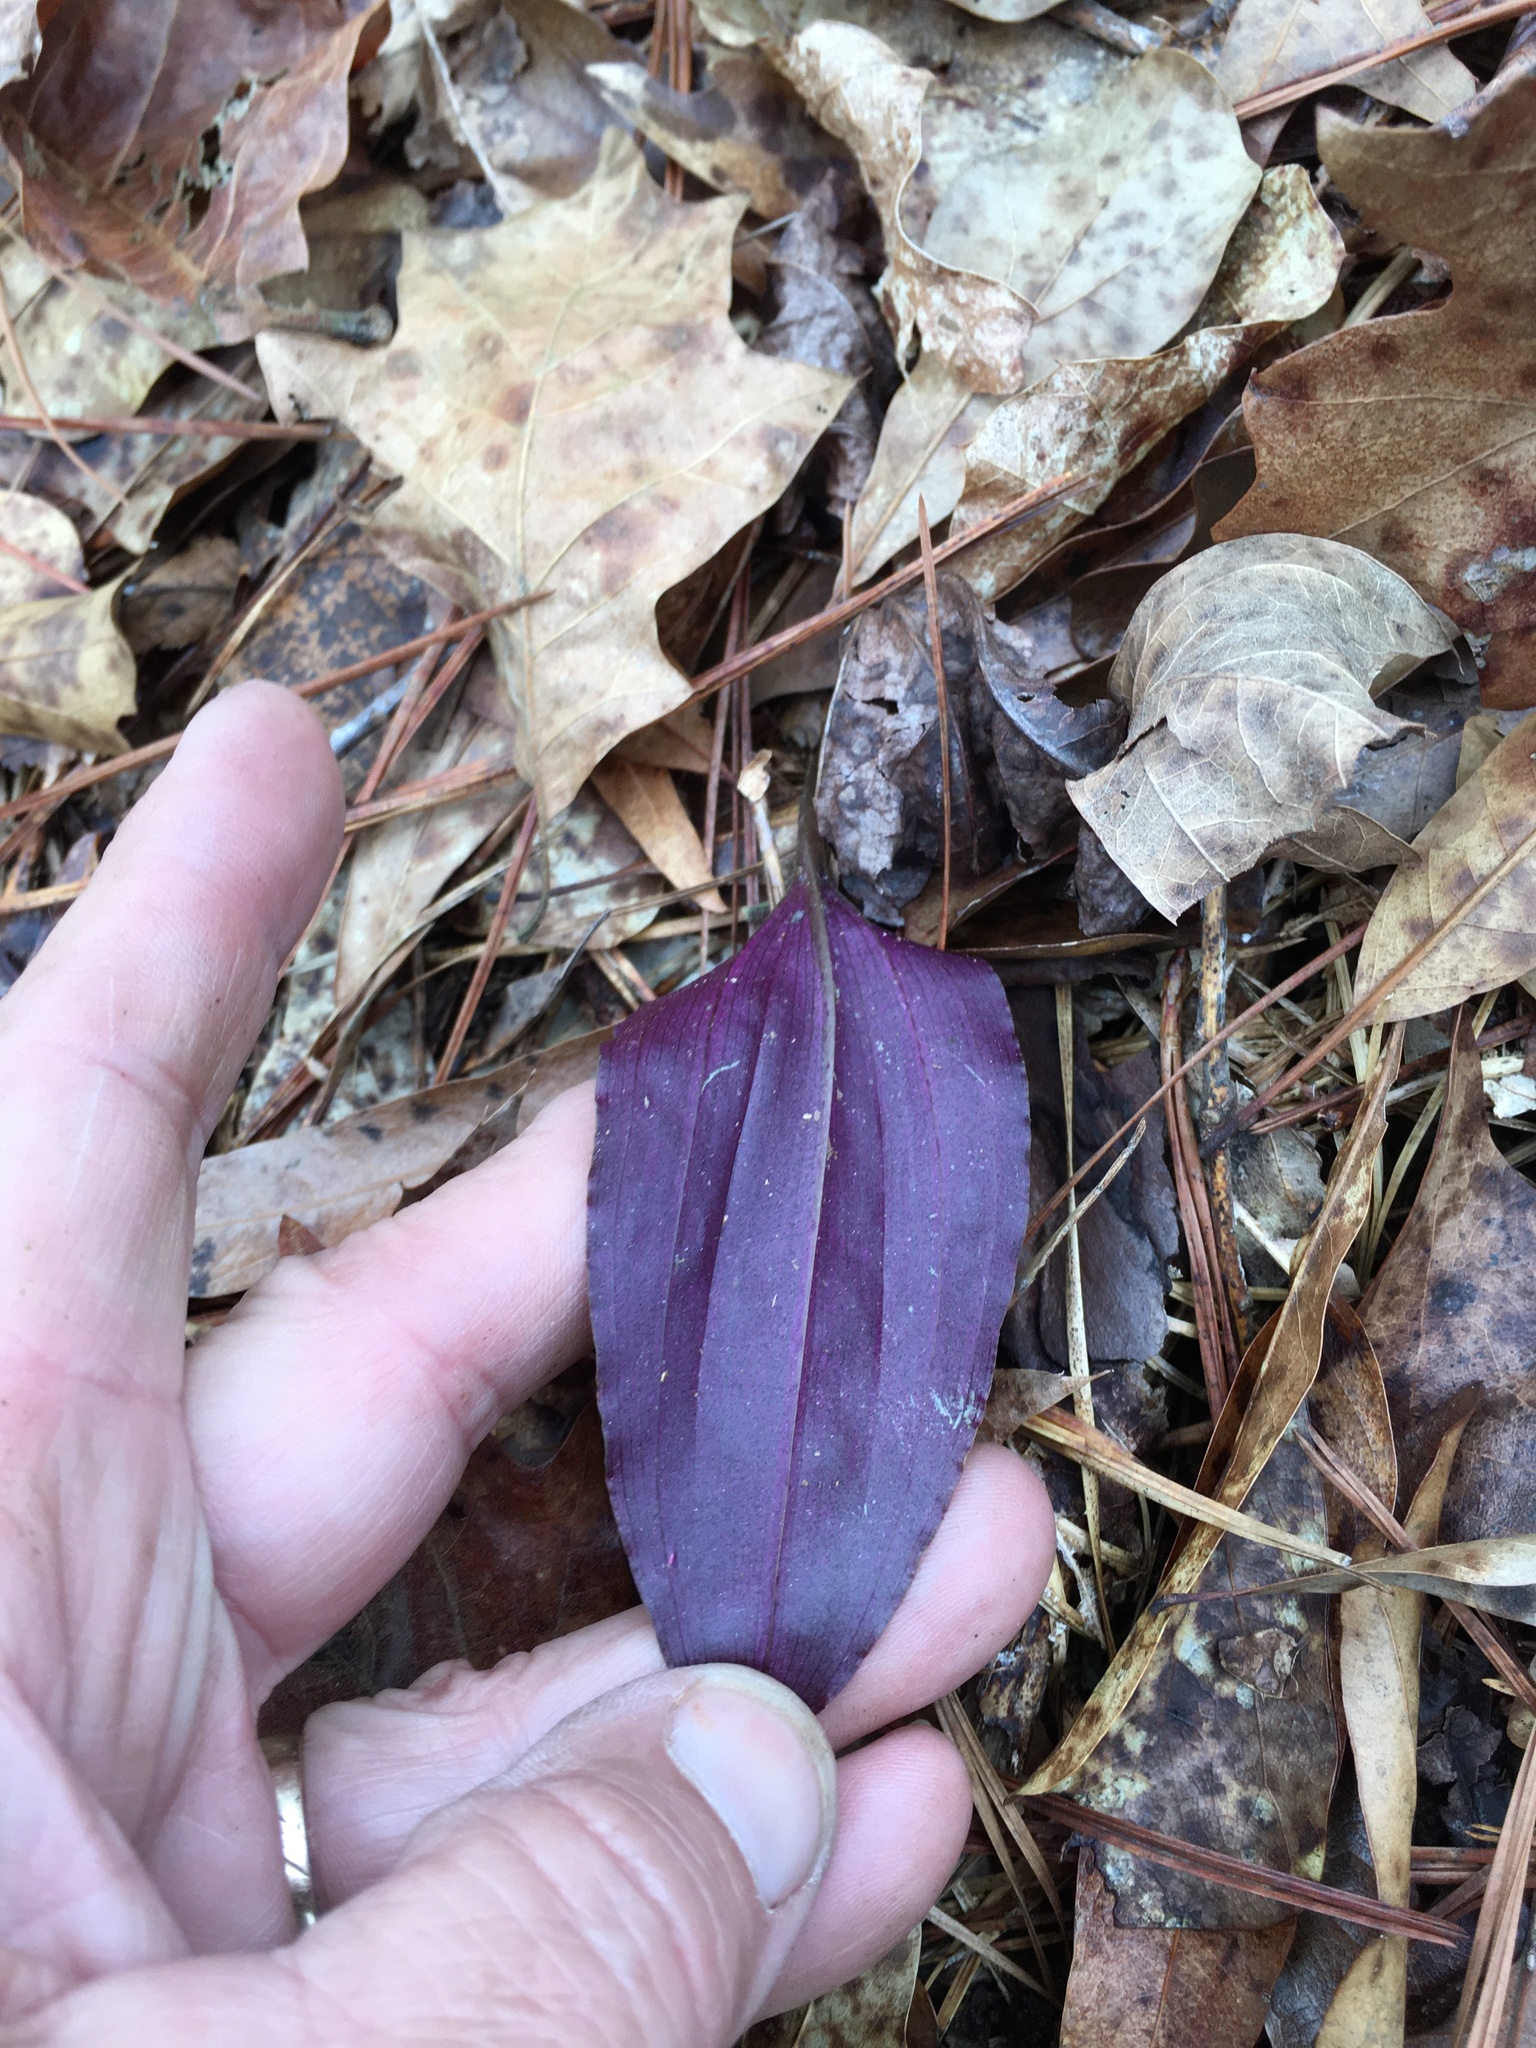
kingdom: Plantae
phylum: Tracheophyta
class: Liliopsida
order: Asparagales
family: Orchidaceae
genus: Tipularia
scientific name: Tipularia discolor
